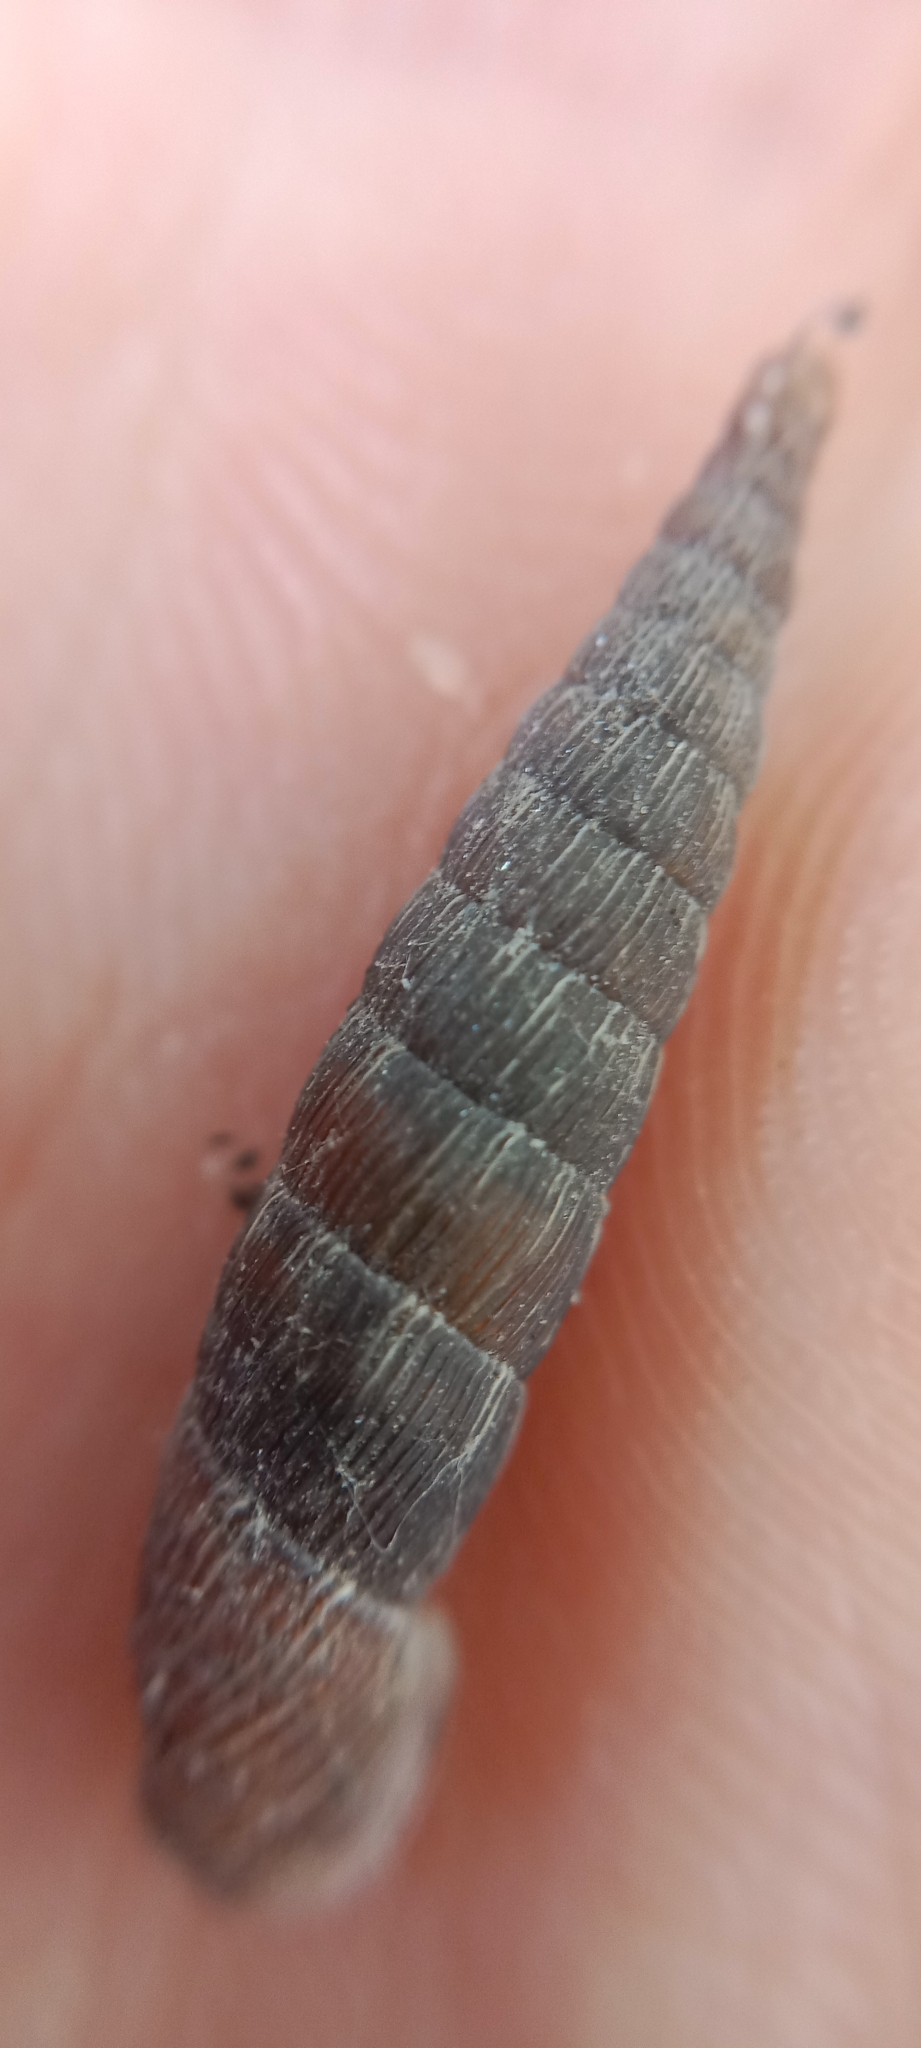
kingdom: Animalia
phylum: Mollusca
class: Gastropoda
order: Stylommatophora
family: Clausiliidae
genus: Laciniaria
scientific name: Laciniaria plicata
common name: Single-lipped door snail
